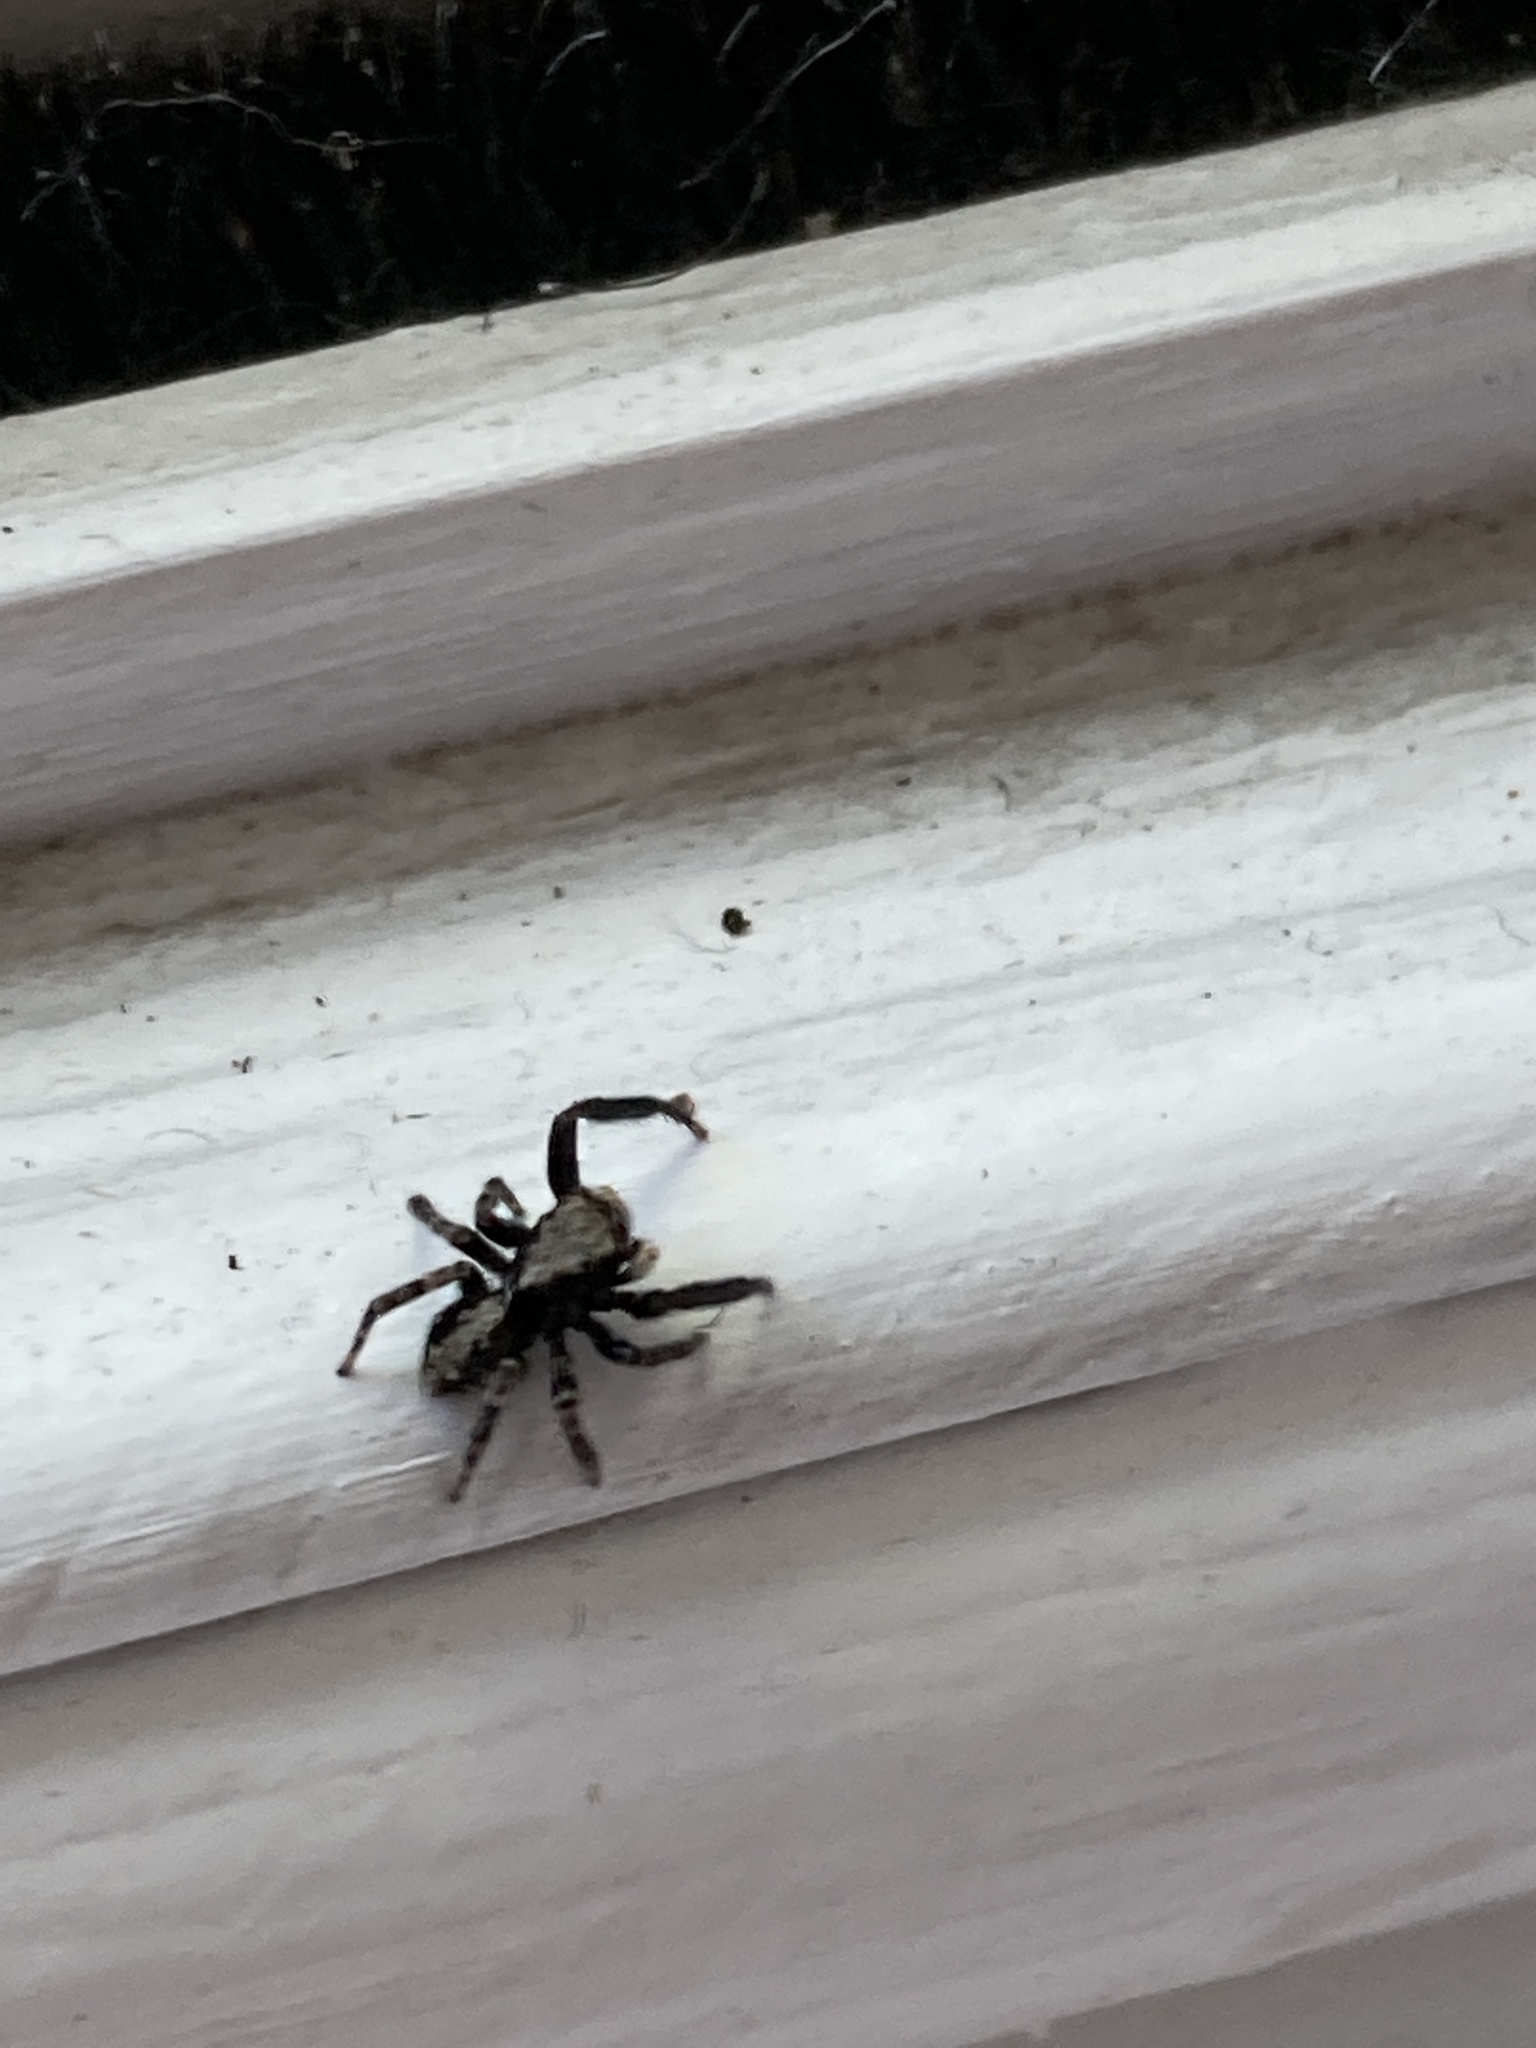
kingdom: Animalia
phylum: Arthropoda
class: Arachnida
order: Araneae
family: Salticidae
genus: Pseudeuophrys
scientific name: Pseudeuophrys lanigera
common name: Jumping spider
